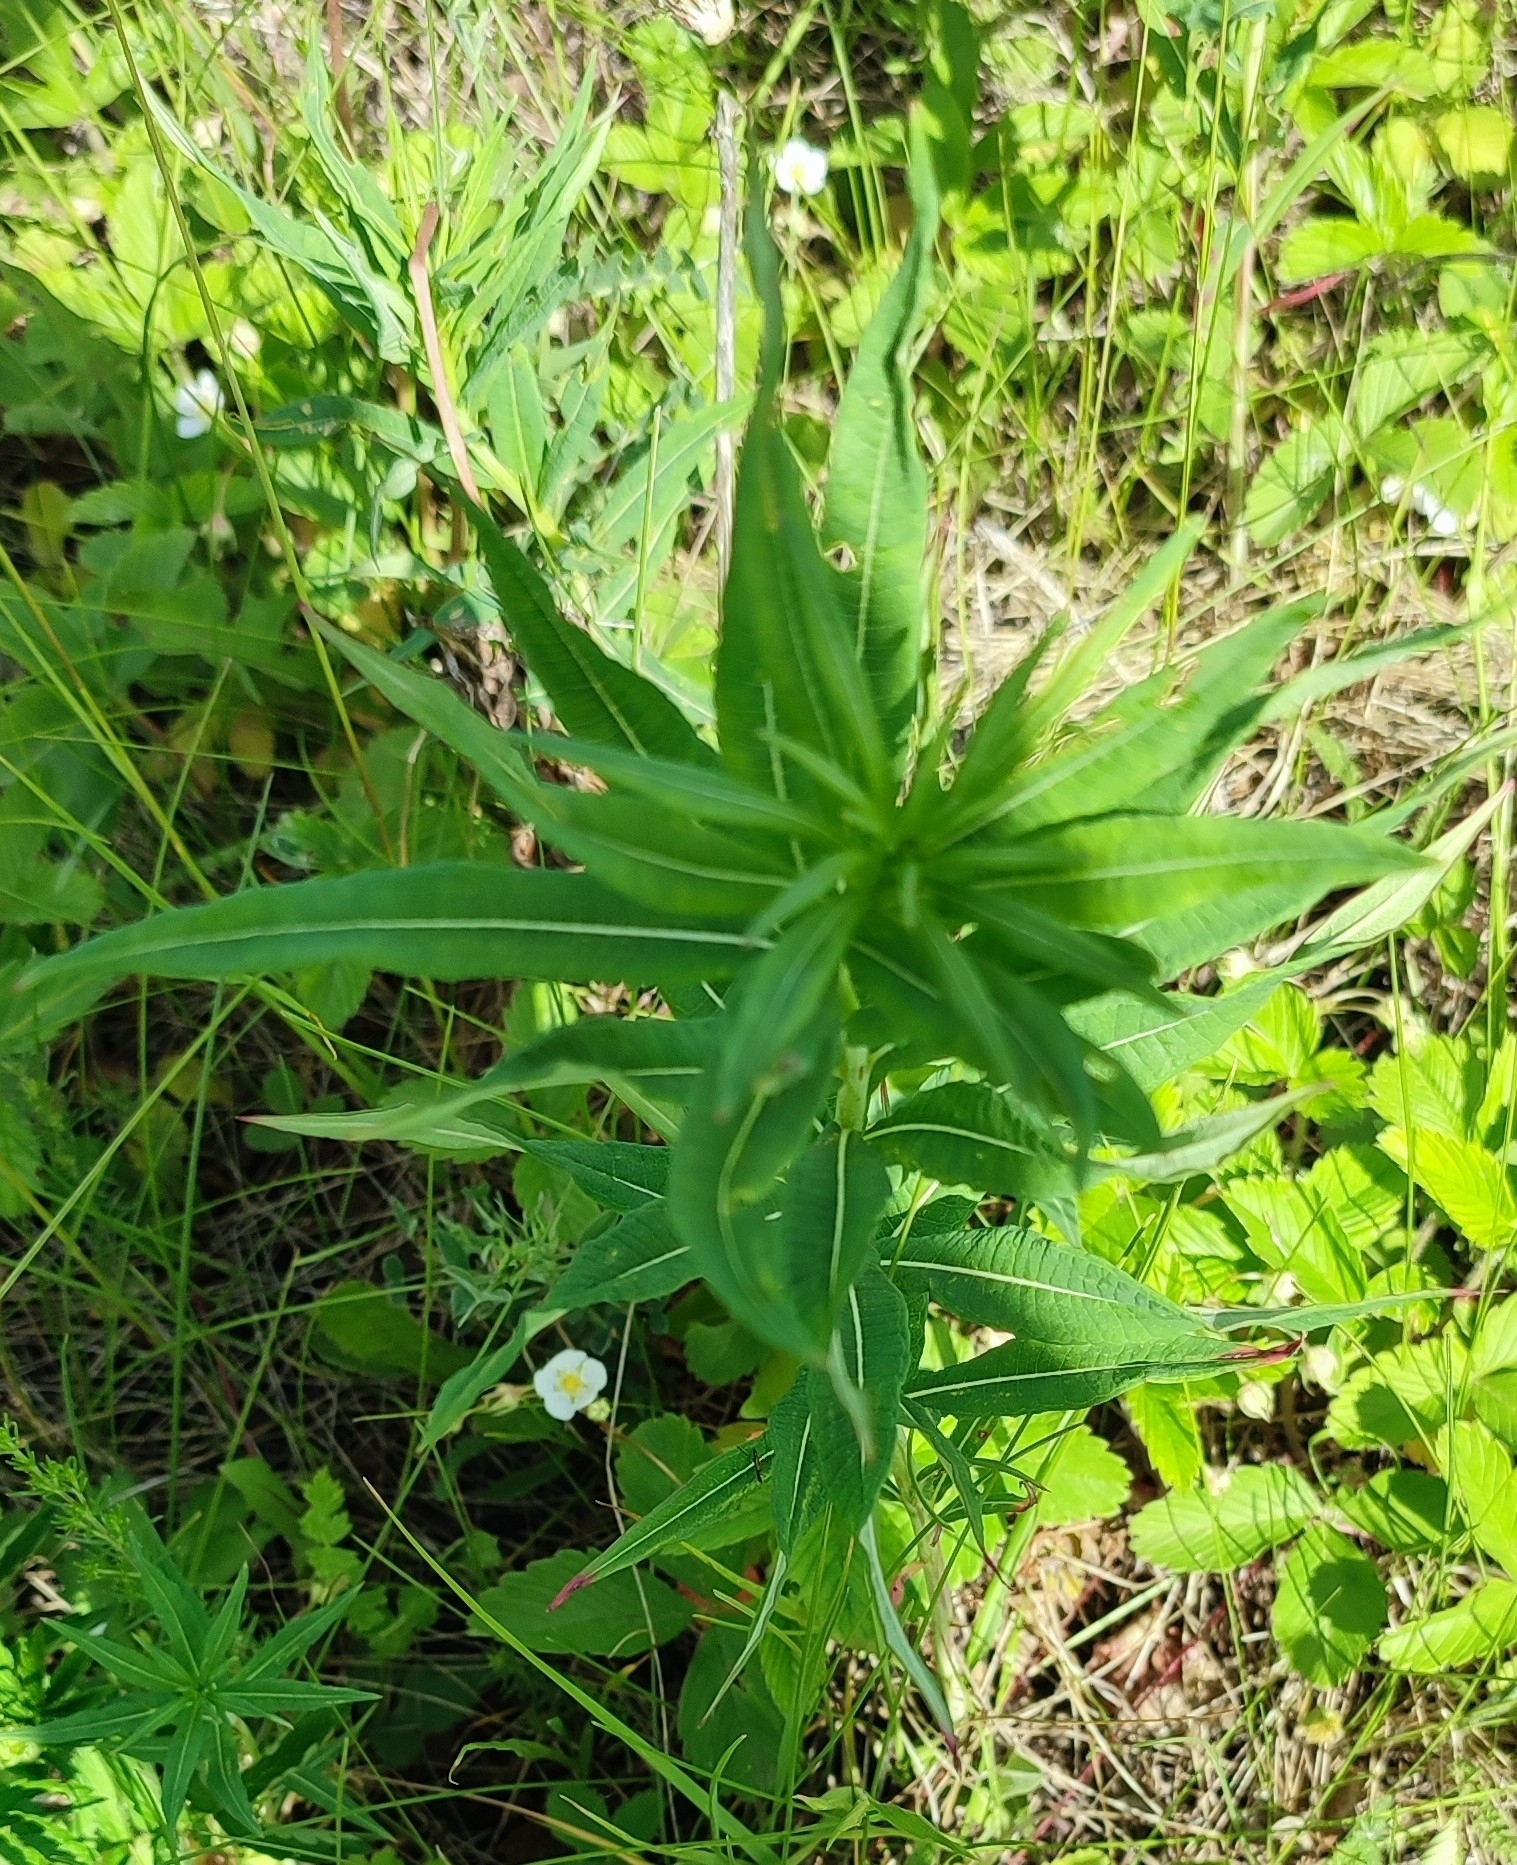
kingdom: Plantae
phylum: Tracheophyta
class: Magnoliopsida
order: Myrtales
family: Onagraceae
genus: Chamaenerion
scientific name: Chamaenerion angustifolium
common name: Fireweed
